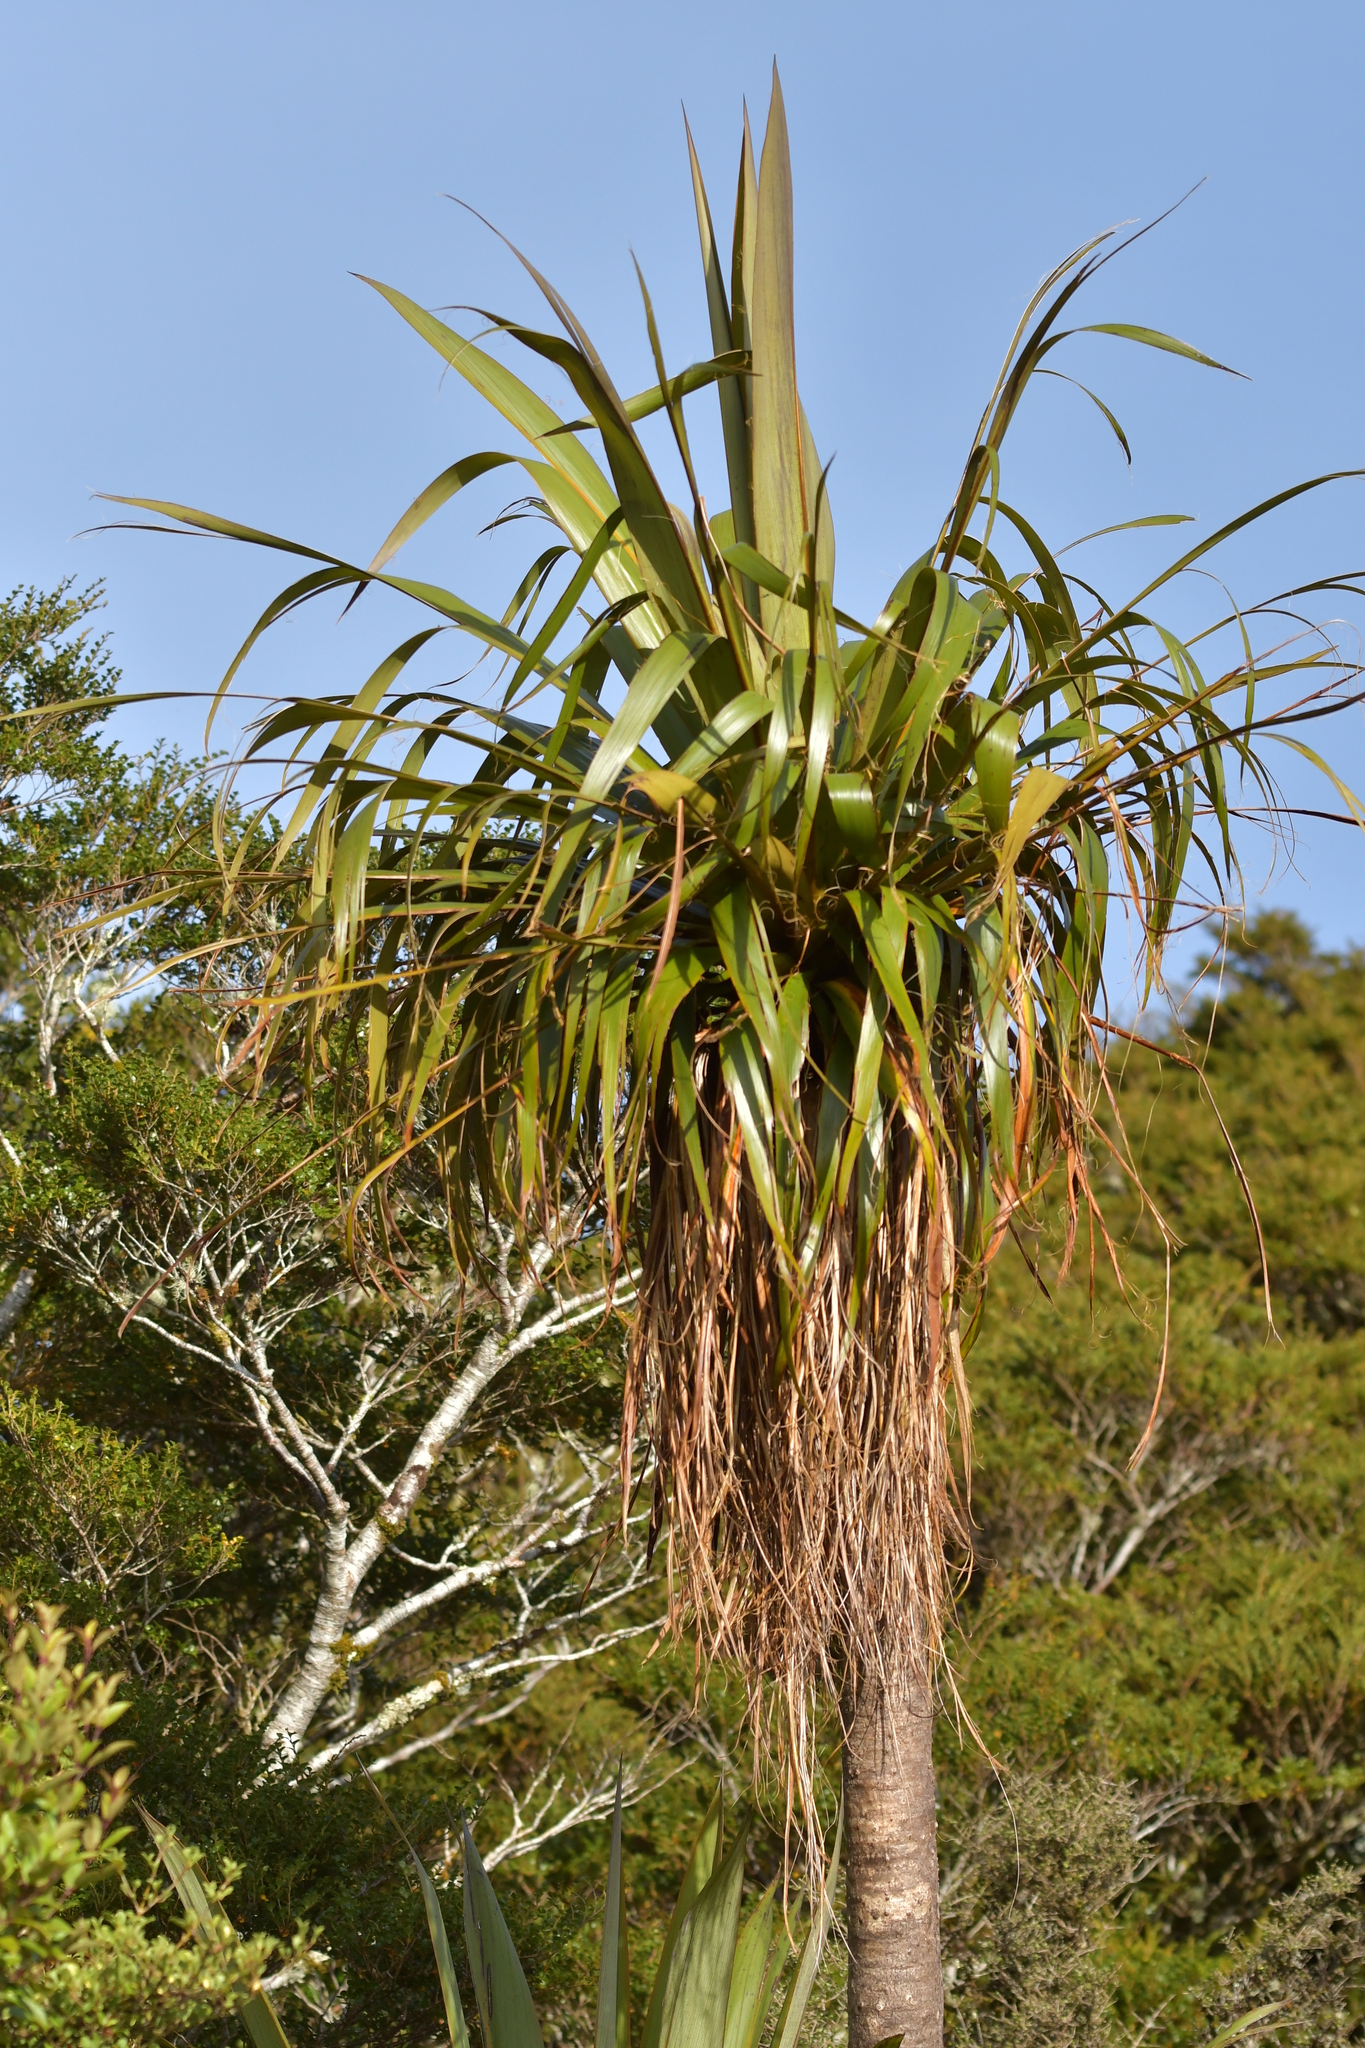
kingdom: Plantae
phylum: Tracheophyta
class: Liliopsida
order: Asparagales
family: Asparagaceae
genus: Cordyline
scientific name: Cordyline indivisa
